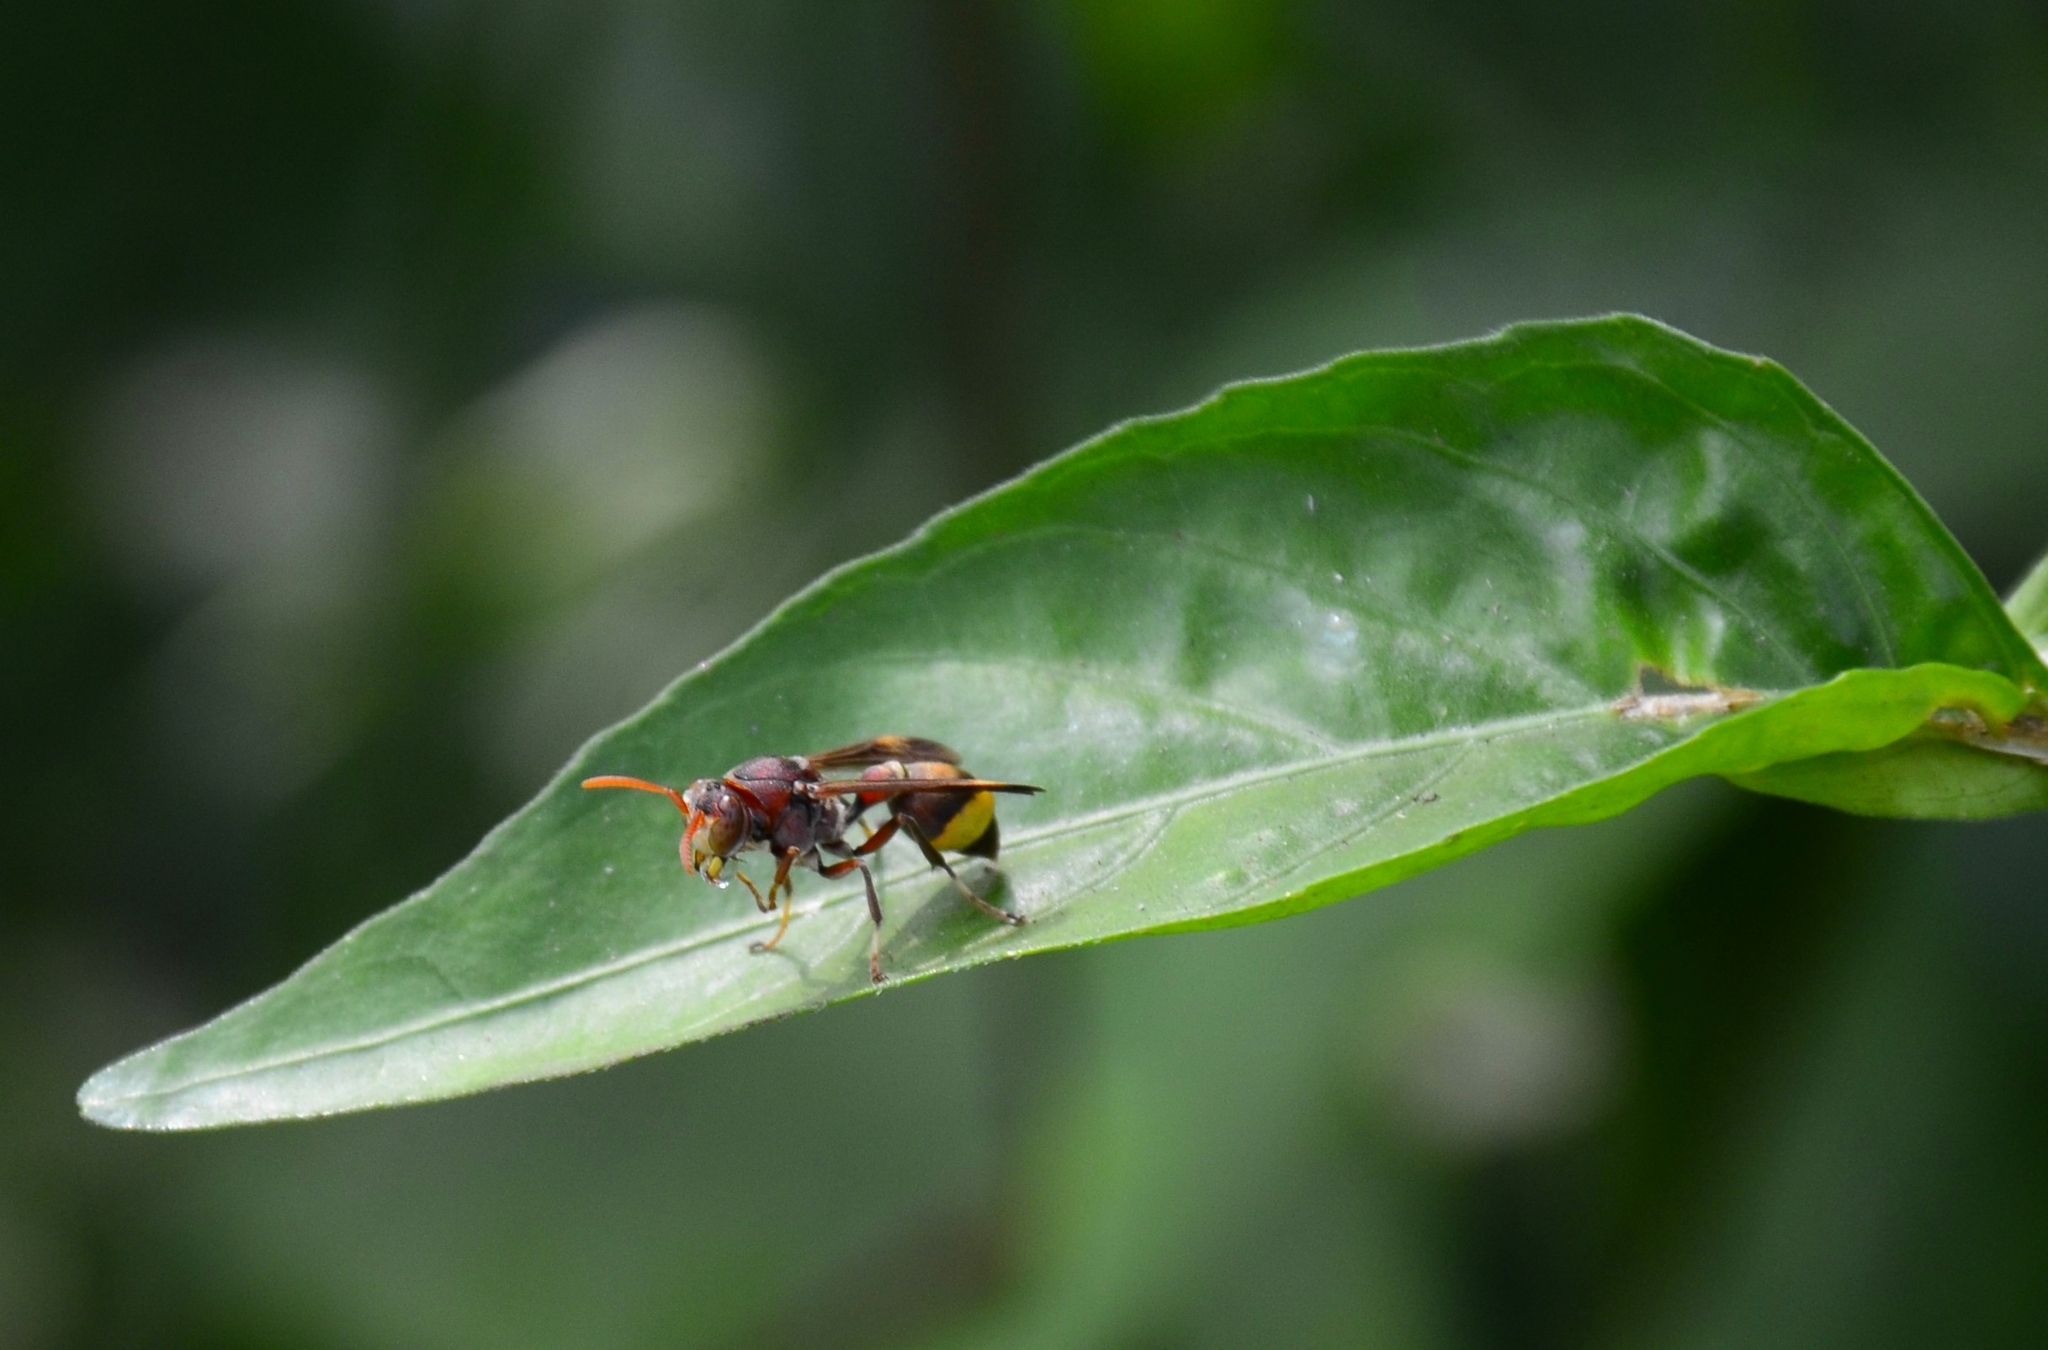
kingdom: Animalia
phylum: Arthropoda
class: Insecta
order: Hymenoptera
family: Vespidae
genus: Ropalidia
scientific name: Ropalidia
